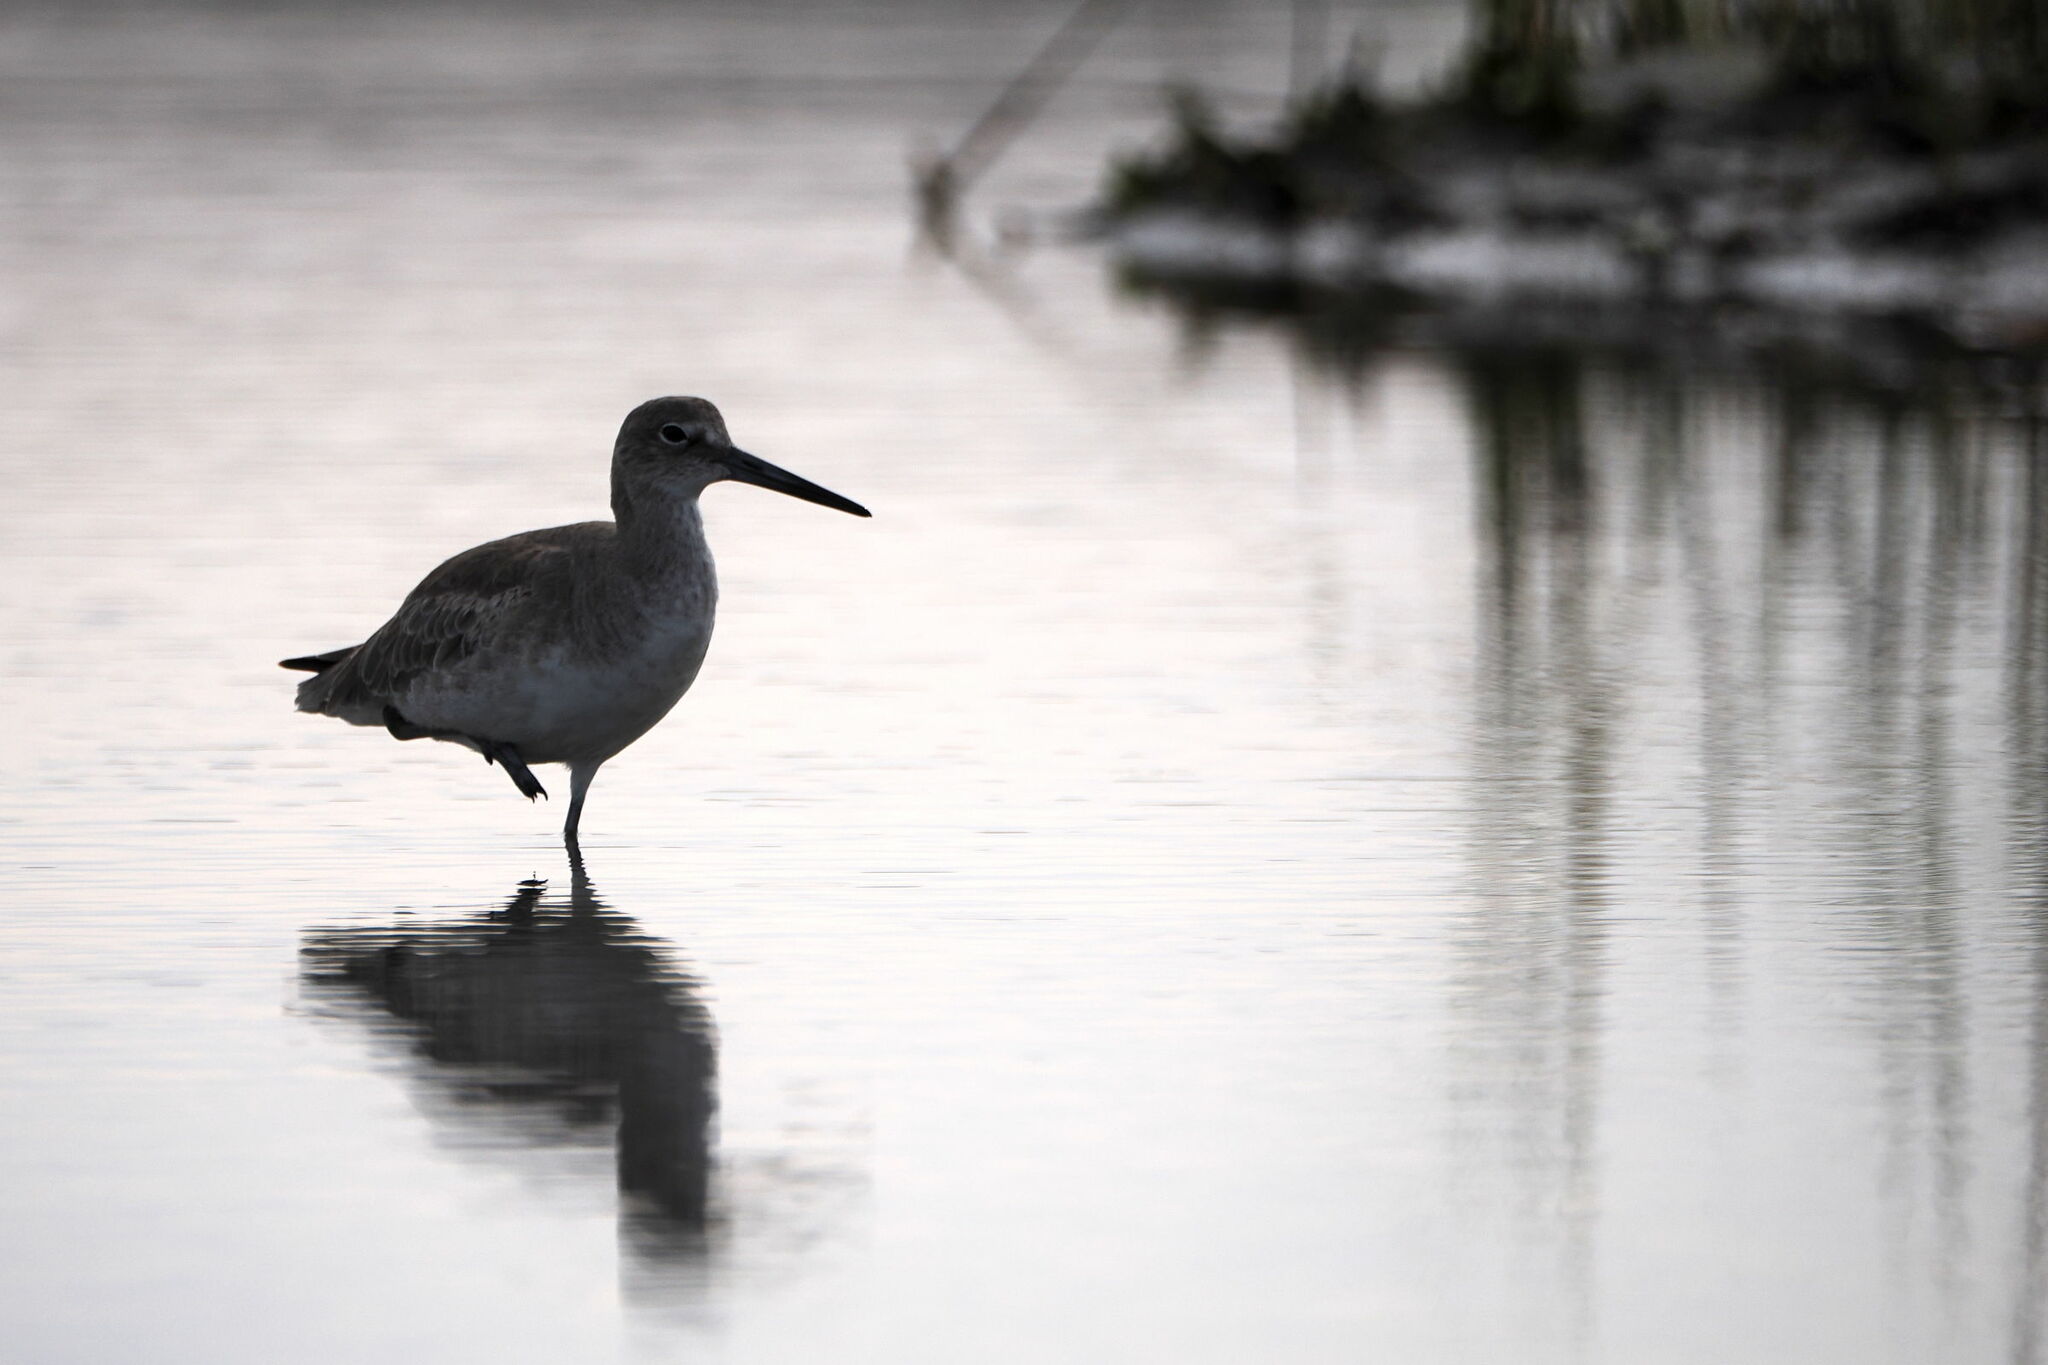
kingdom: Animalia
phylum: Chordata
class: Aves
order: Charadriiformes
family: Scolopacidae
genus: Tringa
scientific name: Tringa semipalmata
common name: Willet
